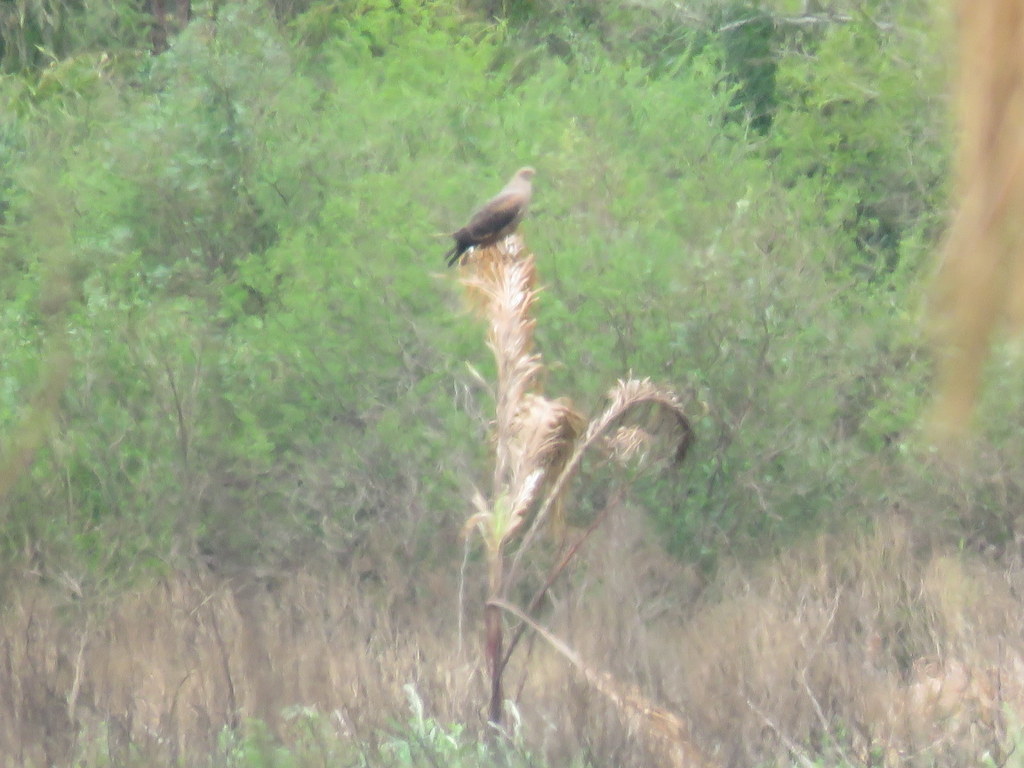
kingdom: Animalia
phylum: Chordata
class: Aves
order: Accipitriformes
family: Accipitridae
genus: Buteogallus
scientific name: Buteogallus meridionalis
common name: Savanna hawk
